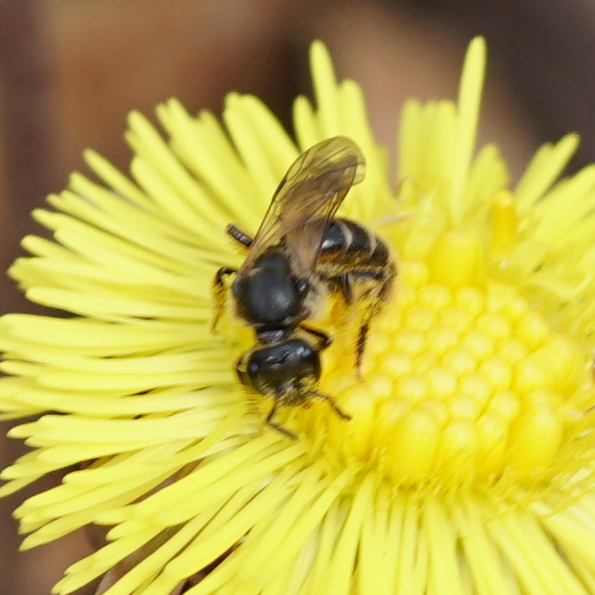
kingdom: Animalia
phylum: Arthropoda
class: Insecta
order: Hymenoptera
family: Halictidae
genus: Lasioglossum
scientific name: Lasioglossum quebecense
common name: Quebec sweat bee
